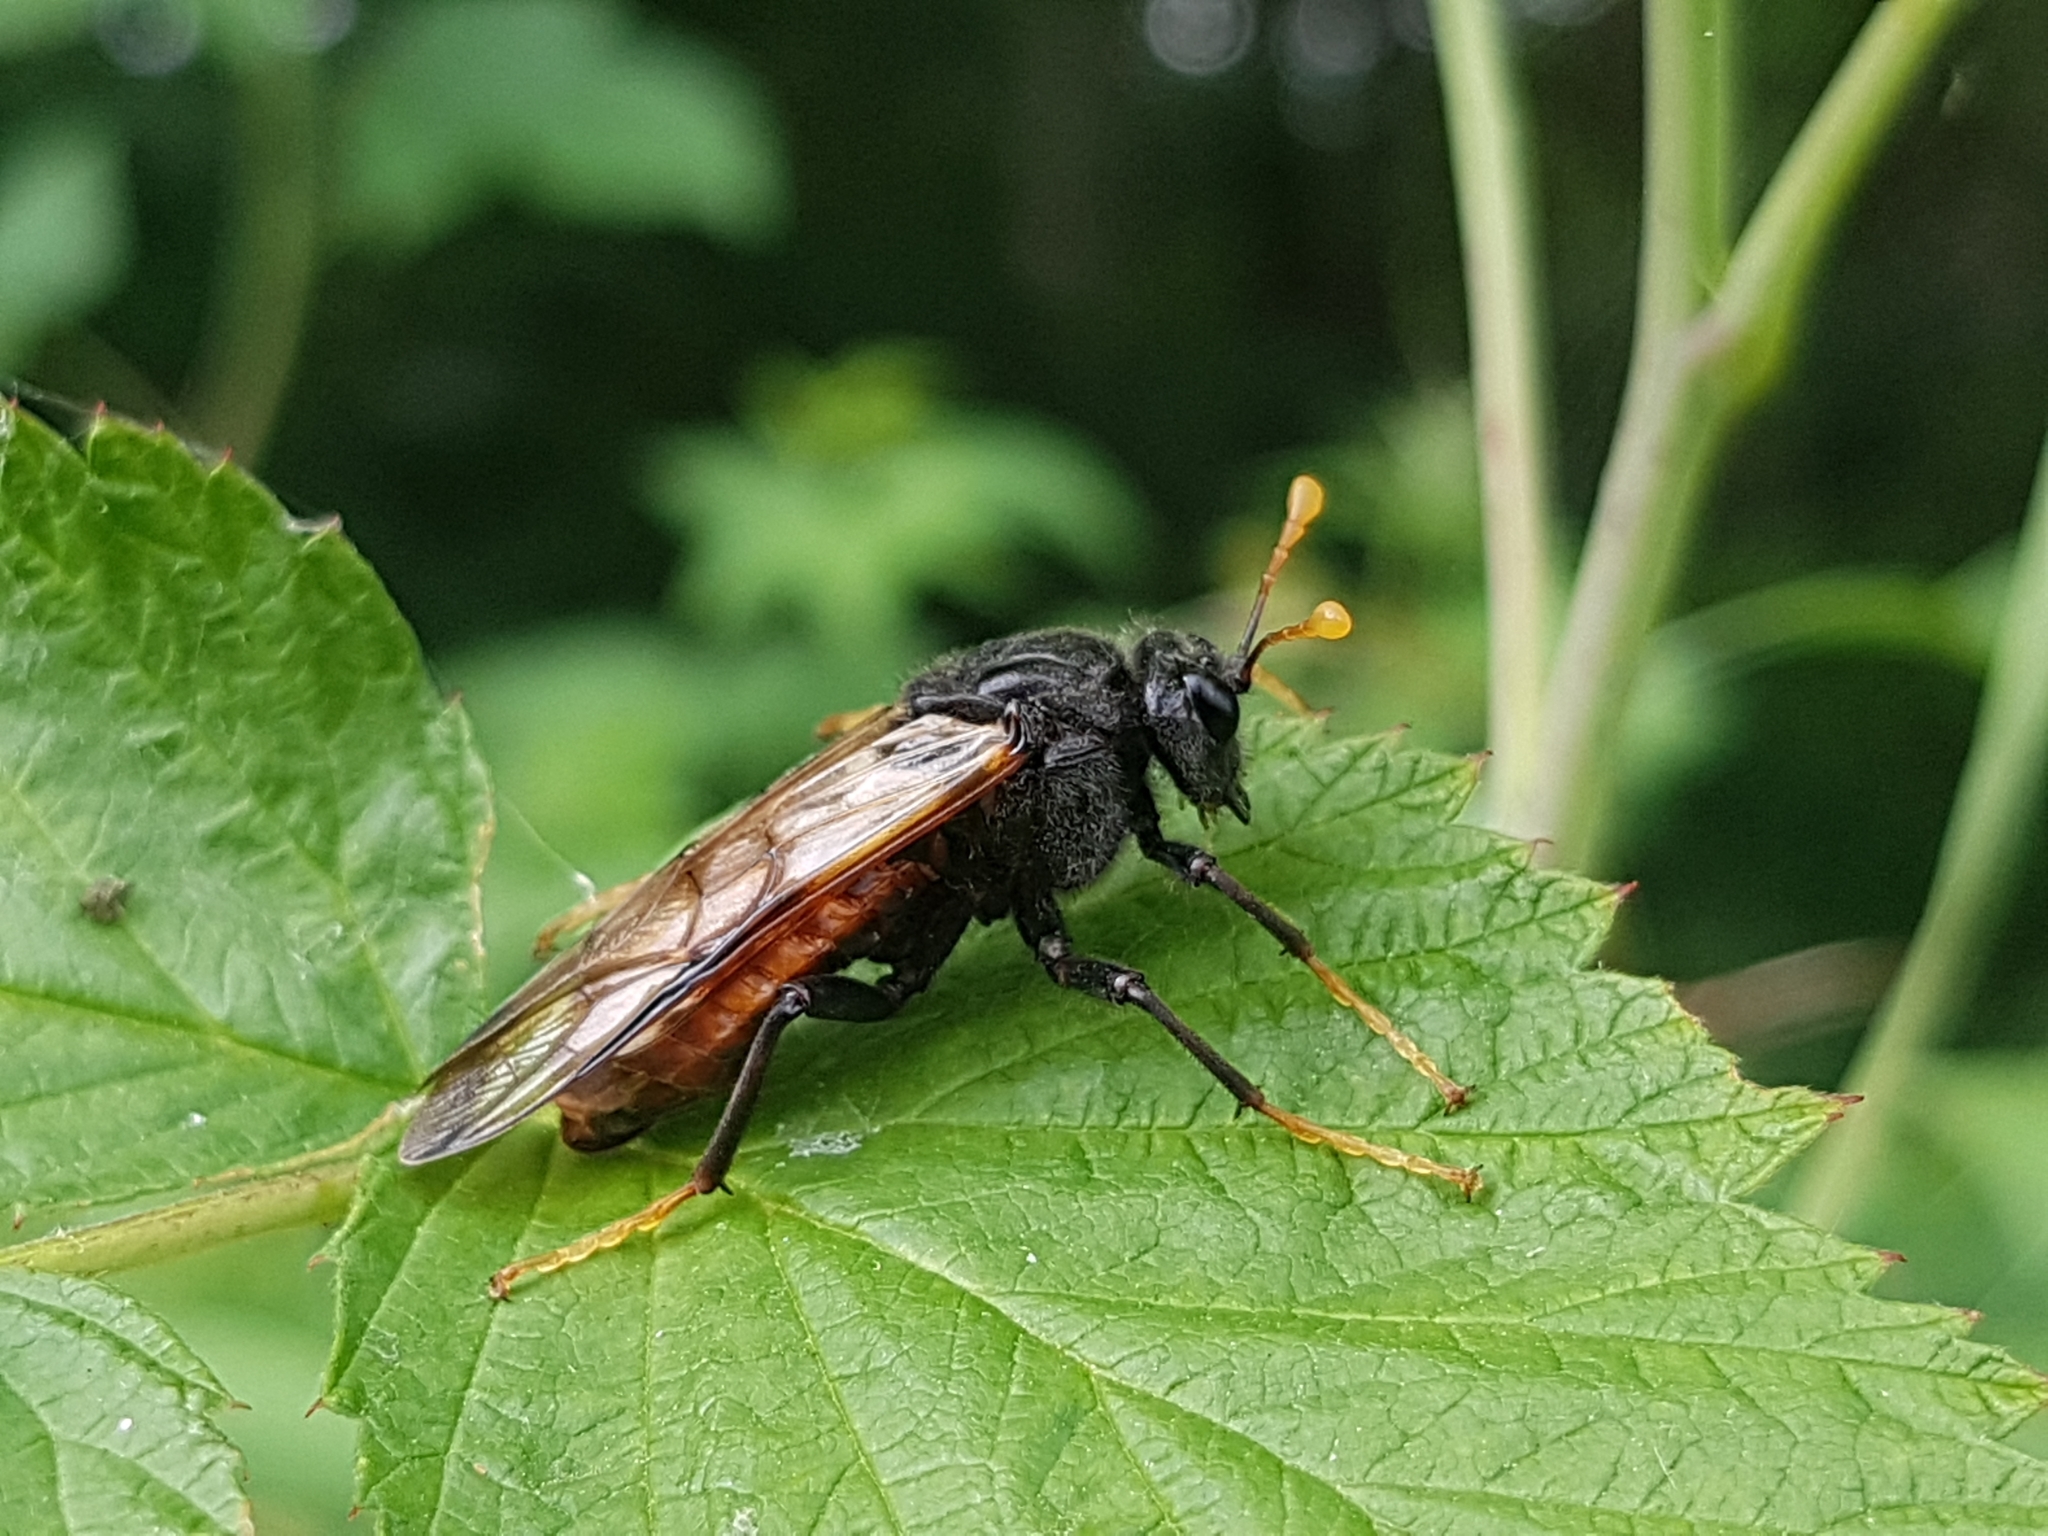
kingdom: Animalia
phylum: Arthropoda
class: Insecta
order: Hymenoptera
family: Cimbicidae
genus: Cimbex
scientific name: Cimbex femoratus
